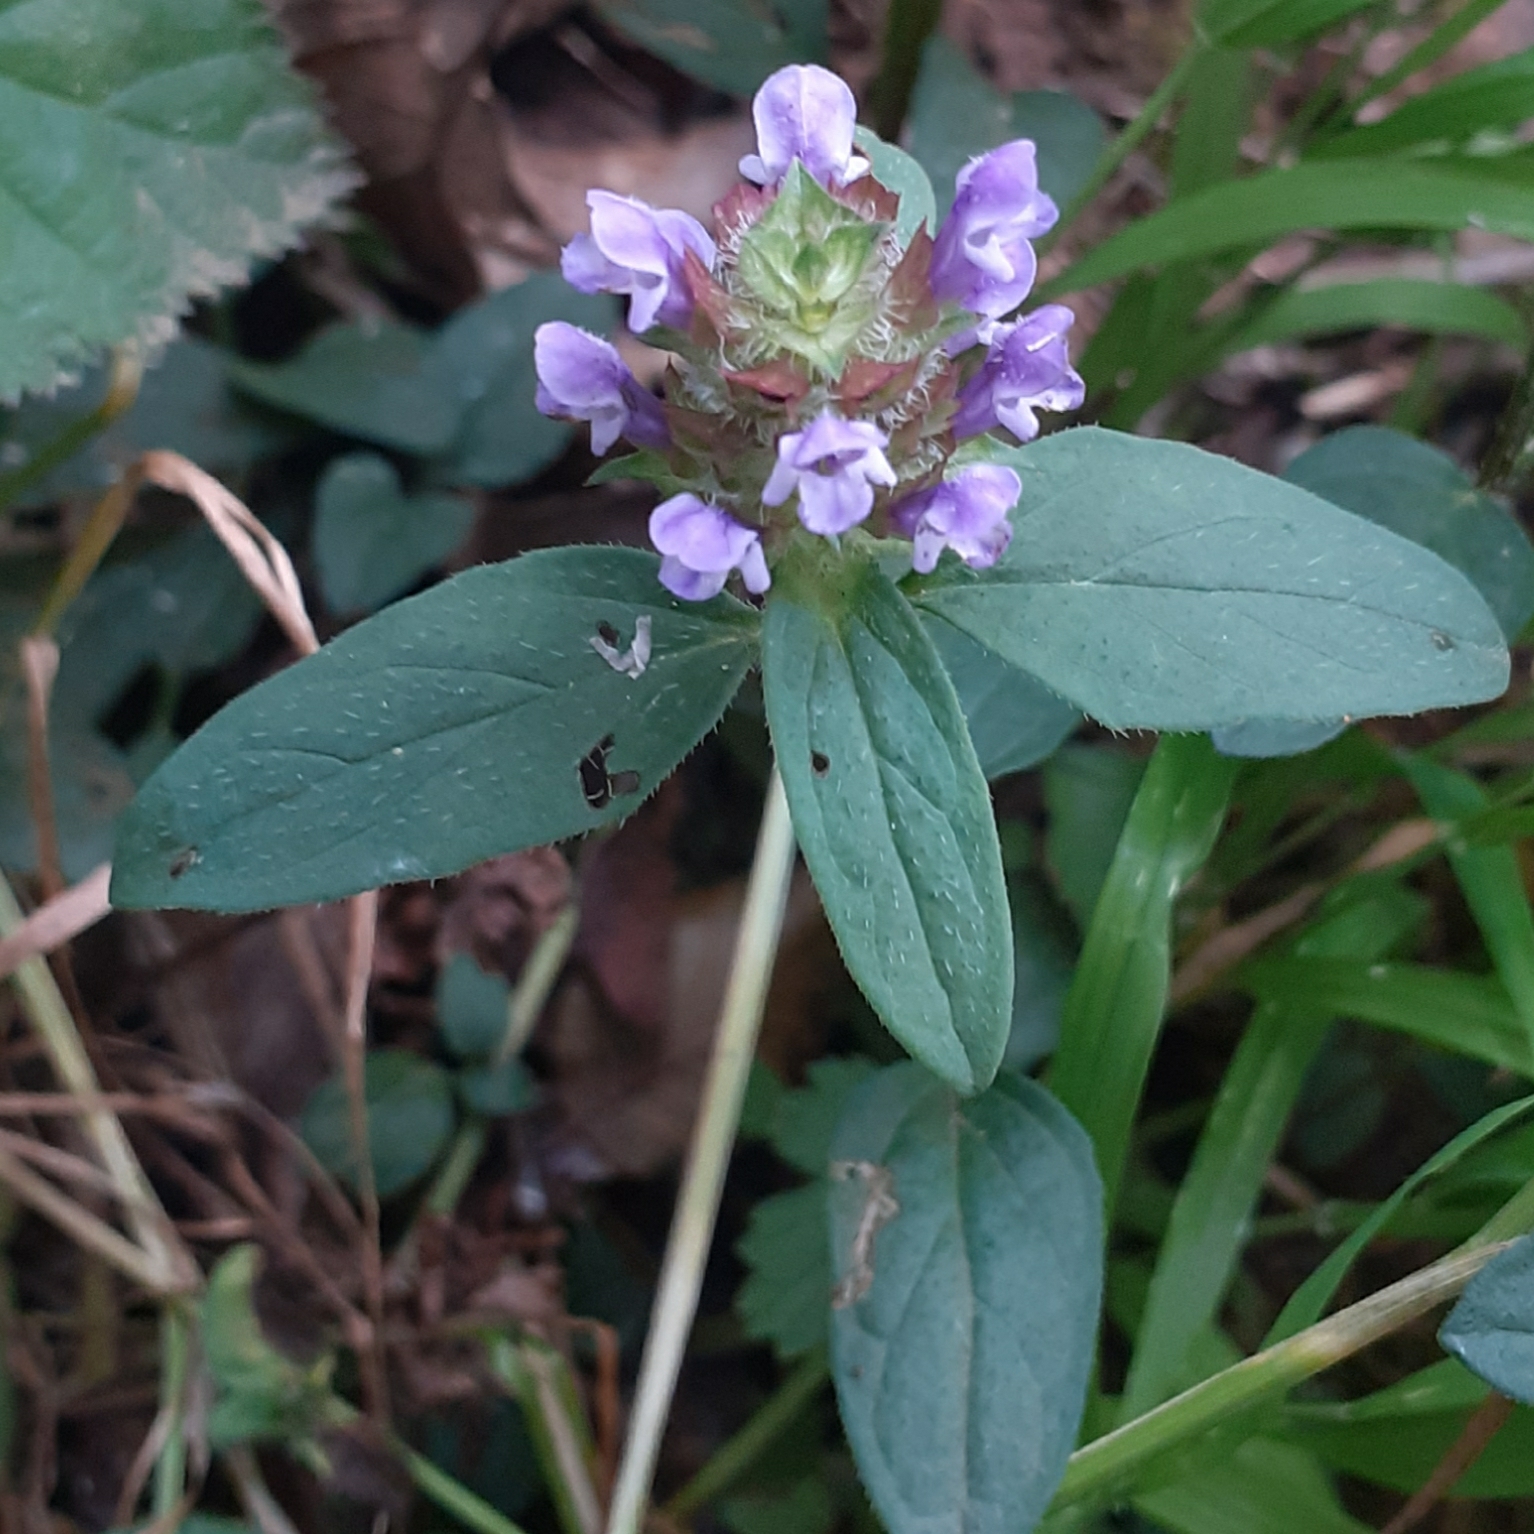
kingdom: Plantae
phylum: Tracheophyta
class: Magnoliopsida
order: Lamiales
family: Lamiaceae
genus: Prunella
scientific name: Prunella vulgaris
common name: Heal-all
